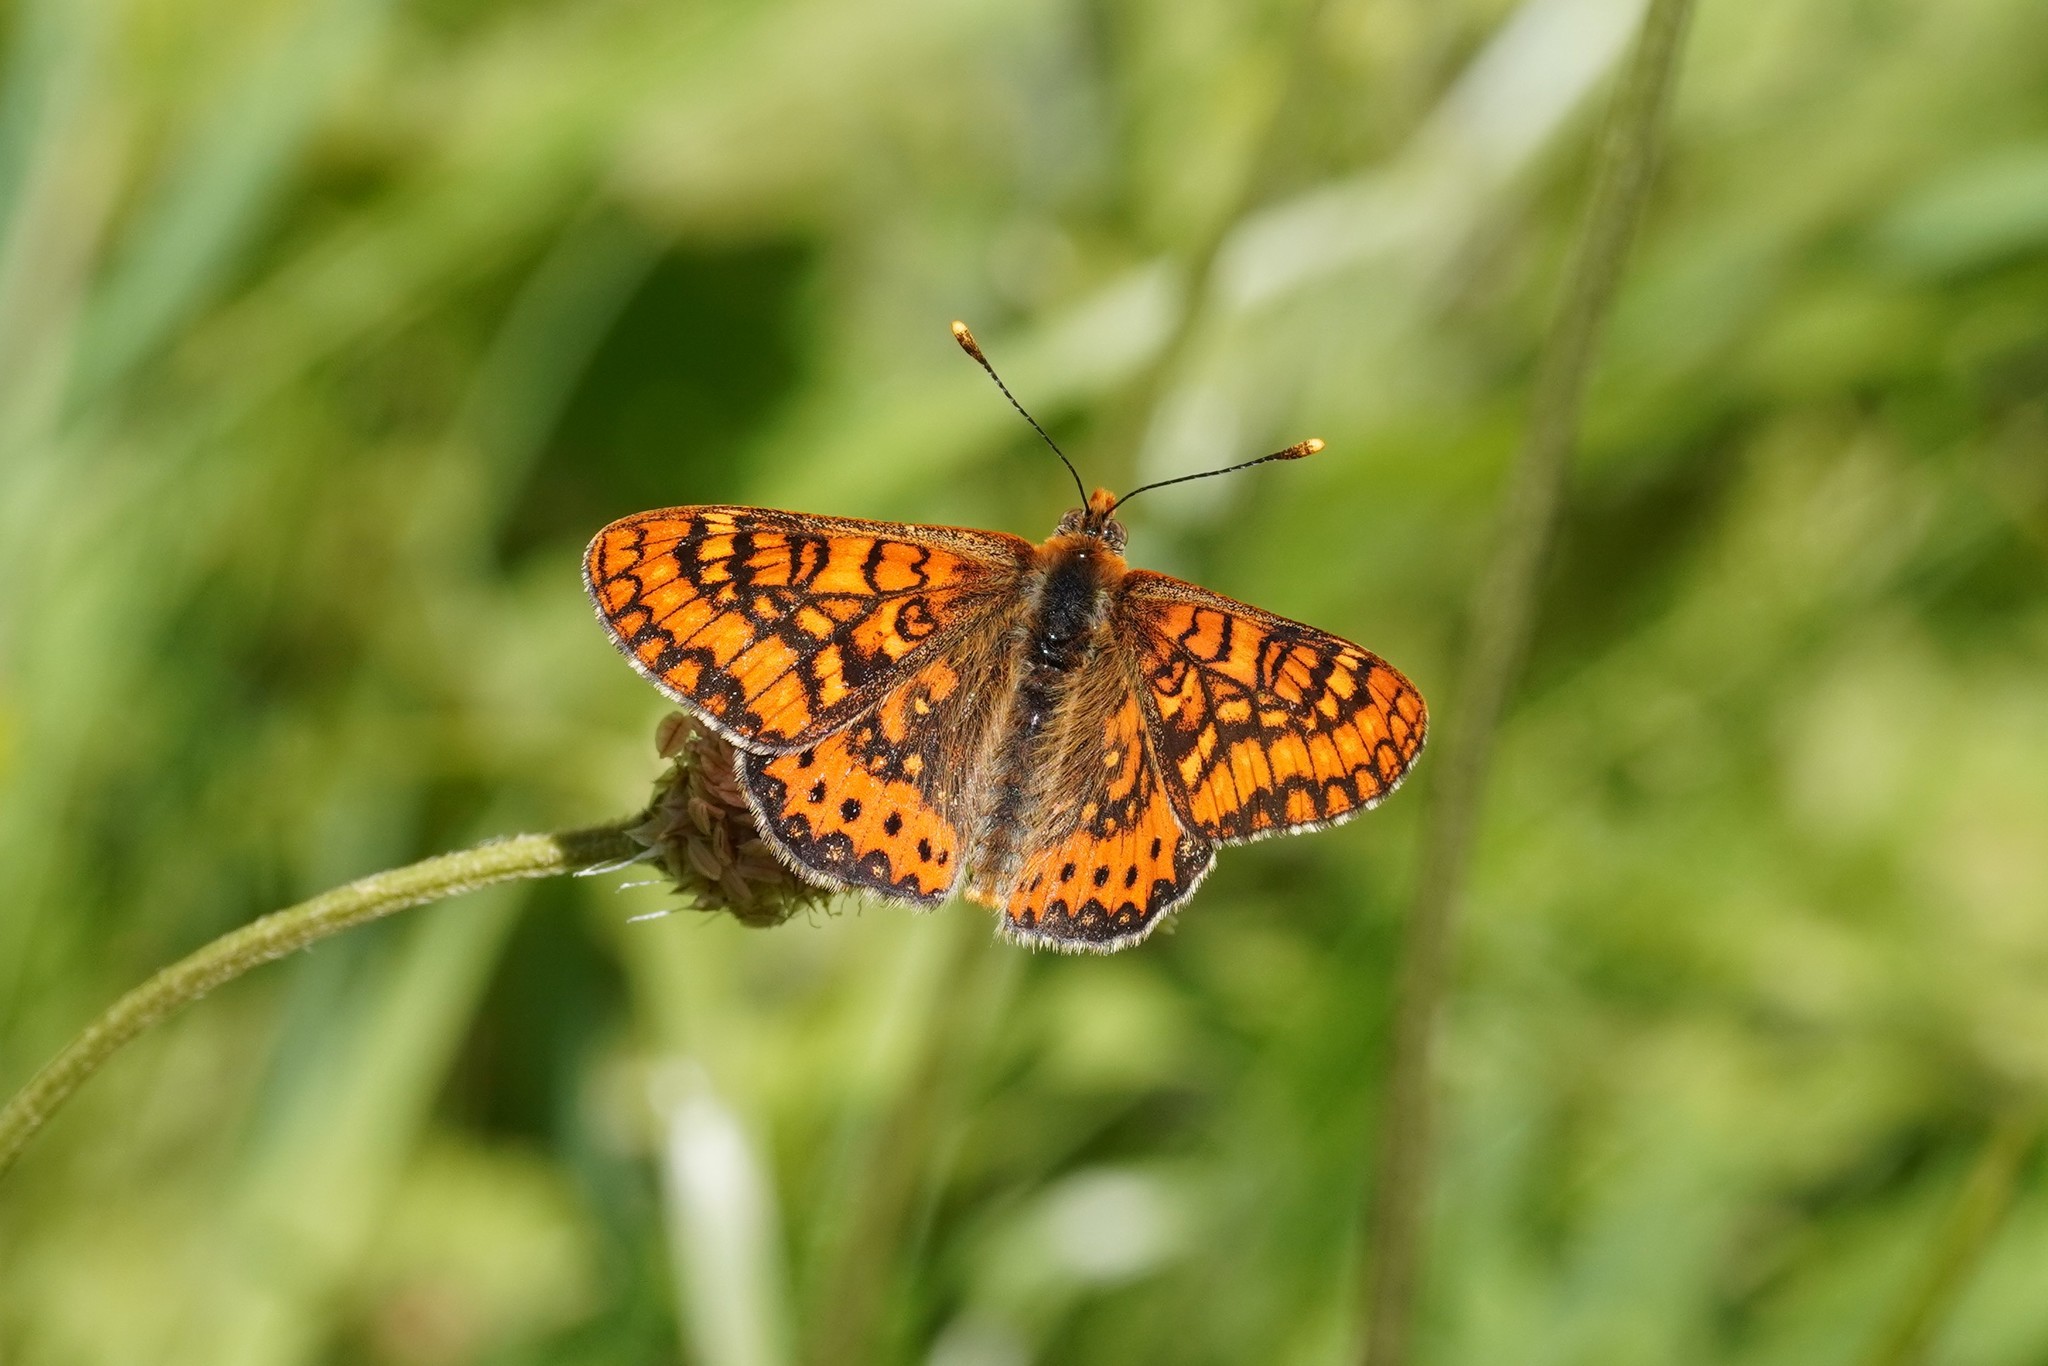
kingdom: Animalia
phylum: Arthropoda
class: Insecta
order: Lepidoptera
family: Nymphalidae
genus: Euphydryas
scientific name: Euphydryas aurinia
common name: Marsh fritillary
